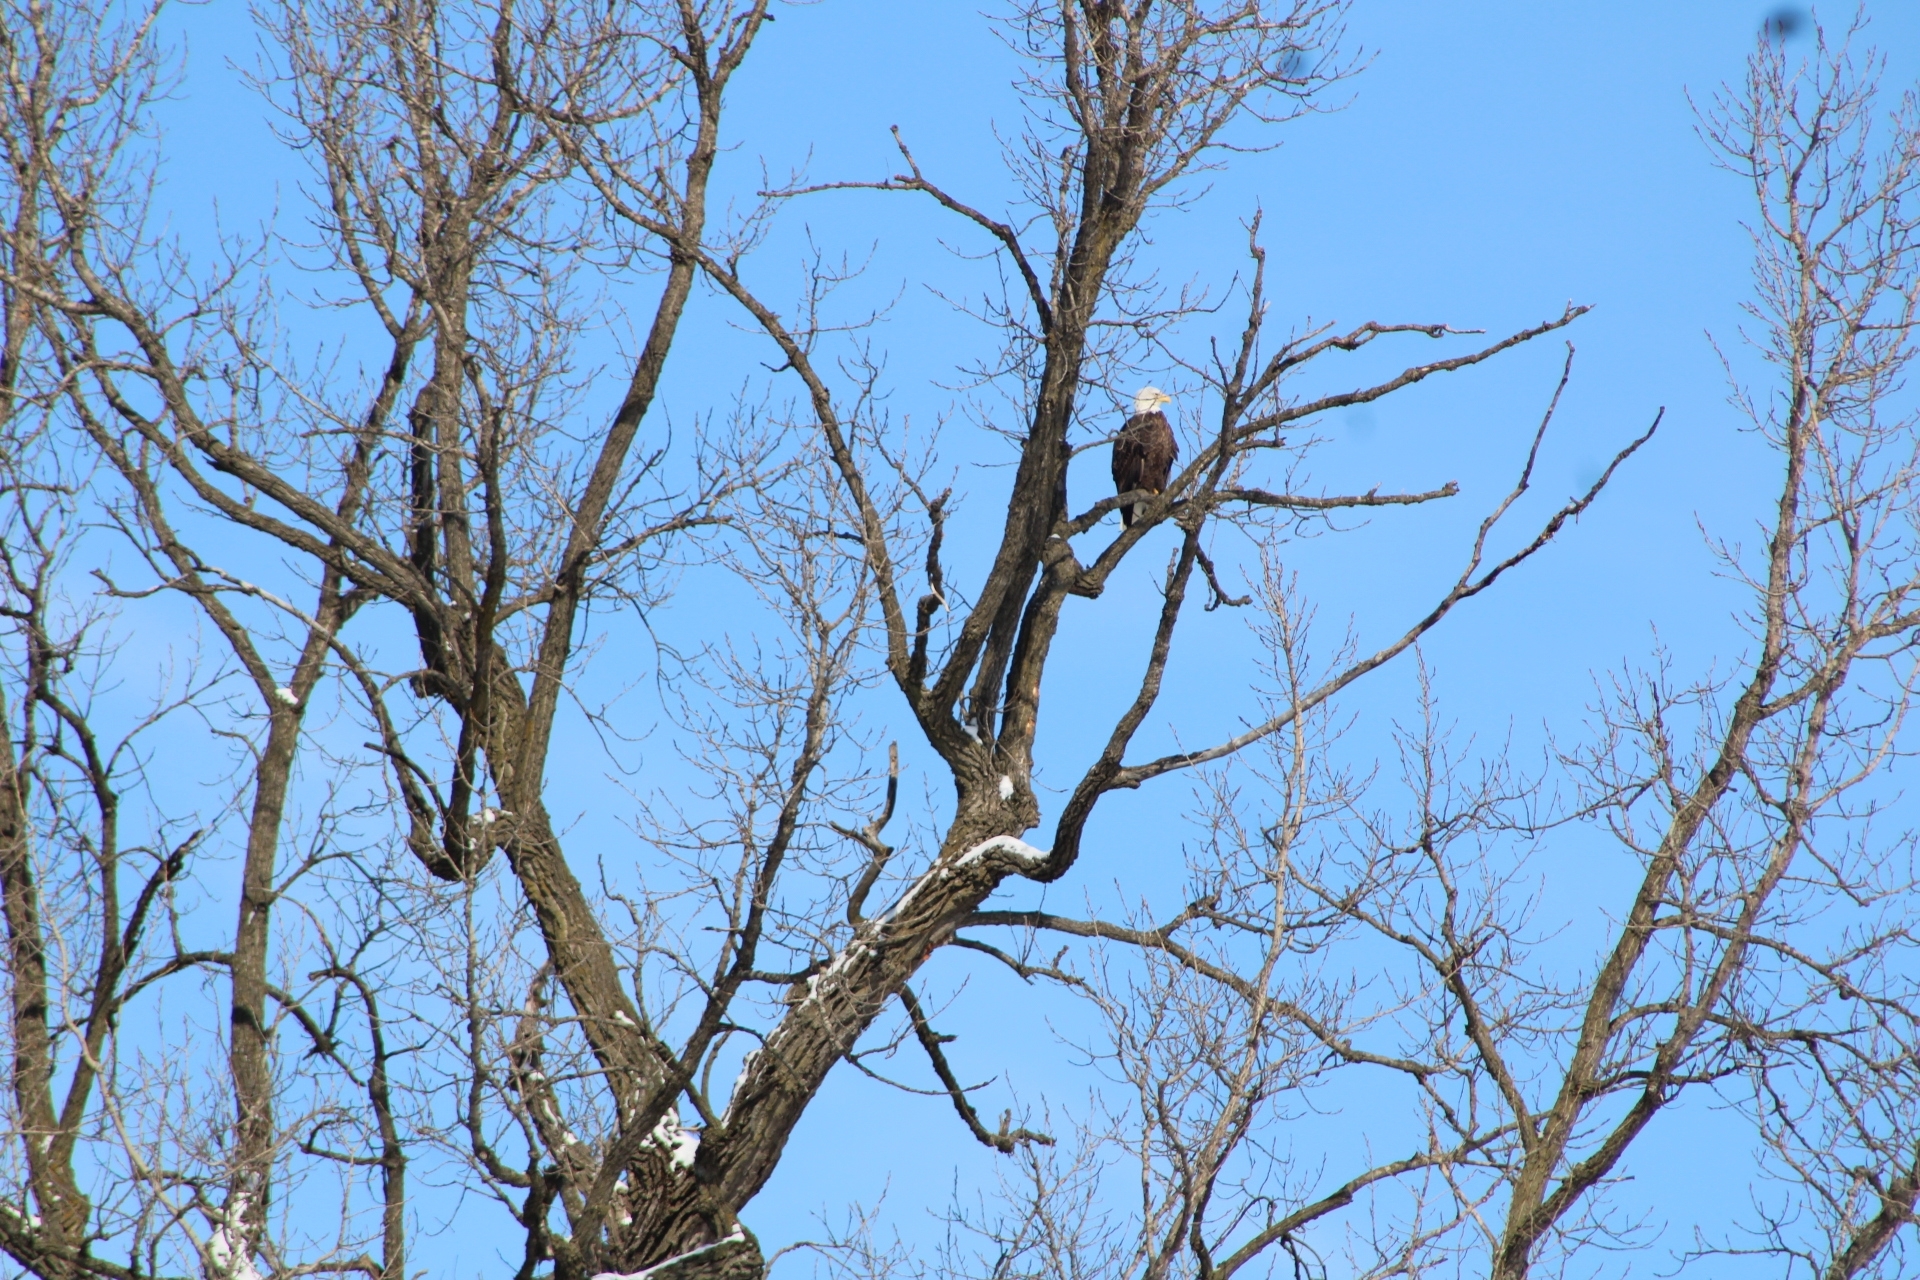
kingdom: Animalia
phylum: Chordata
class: Aves
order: Accipitriformes
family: Accipitridae
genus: Haliaeetus
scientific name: Haliaeetus leucocephalus
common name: Bald eagle
